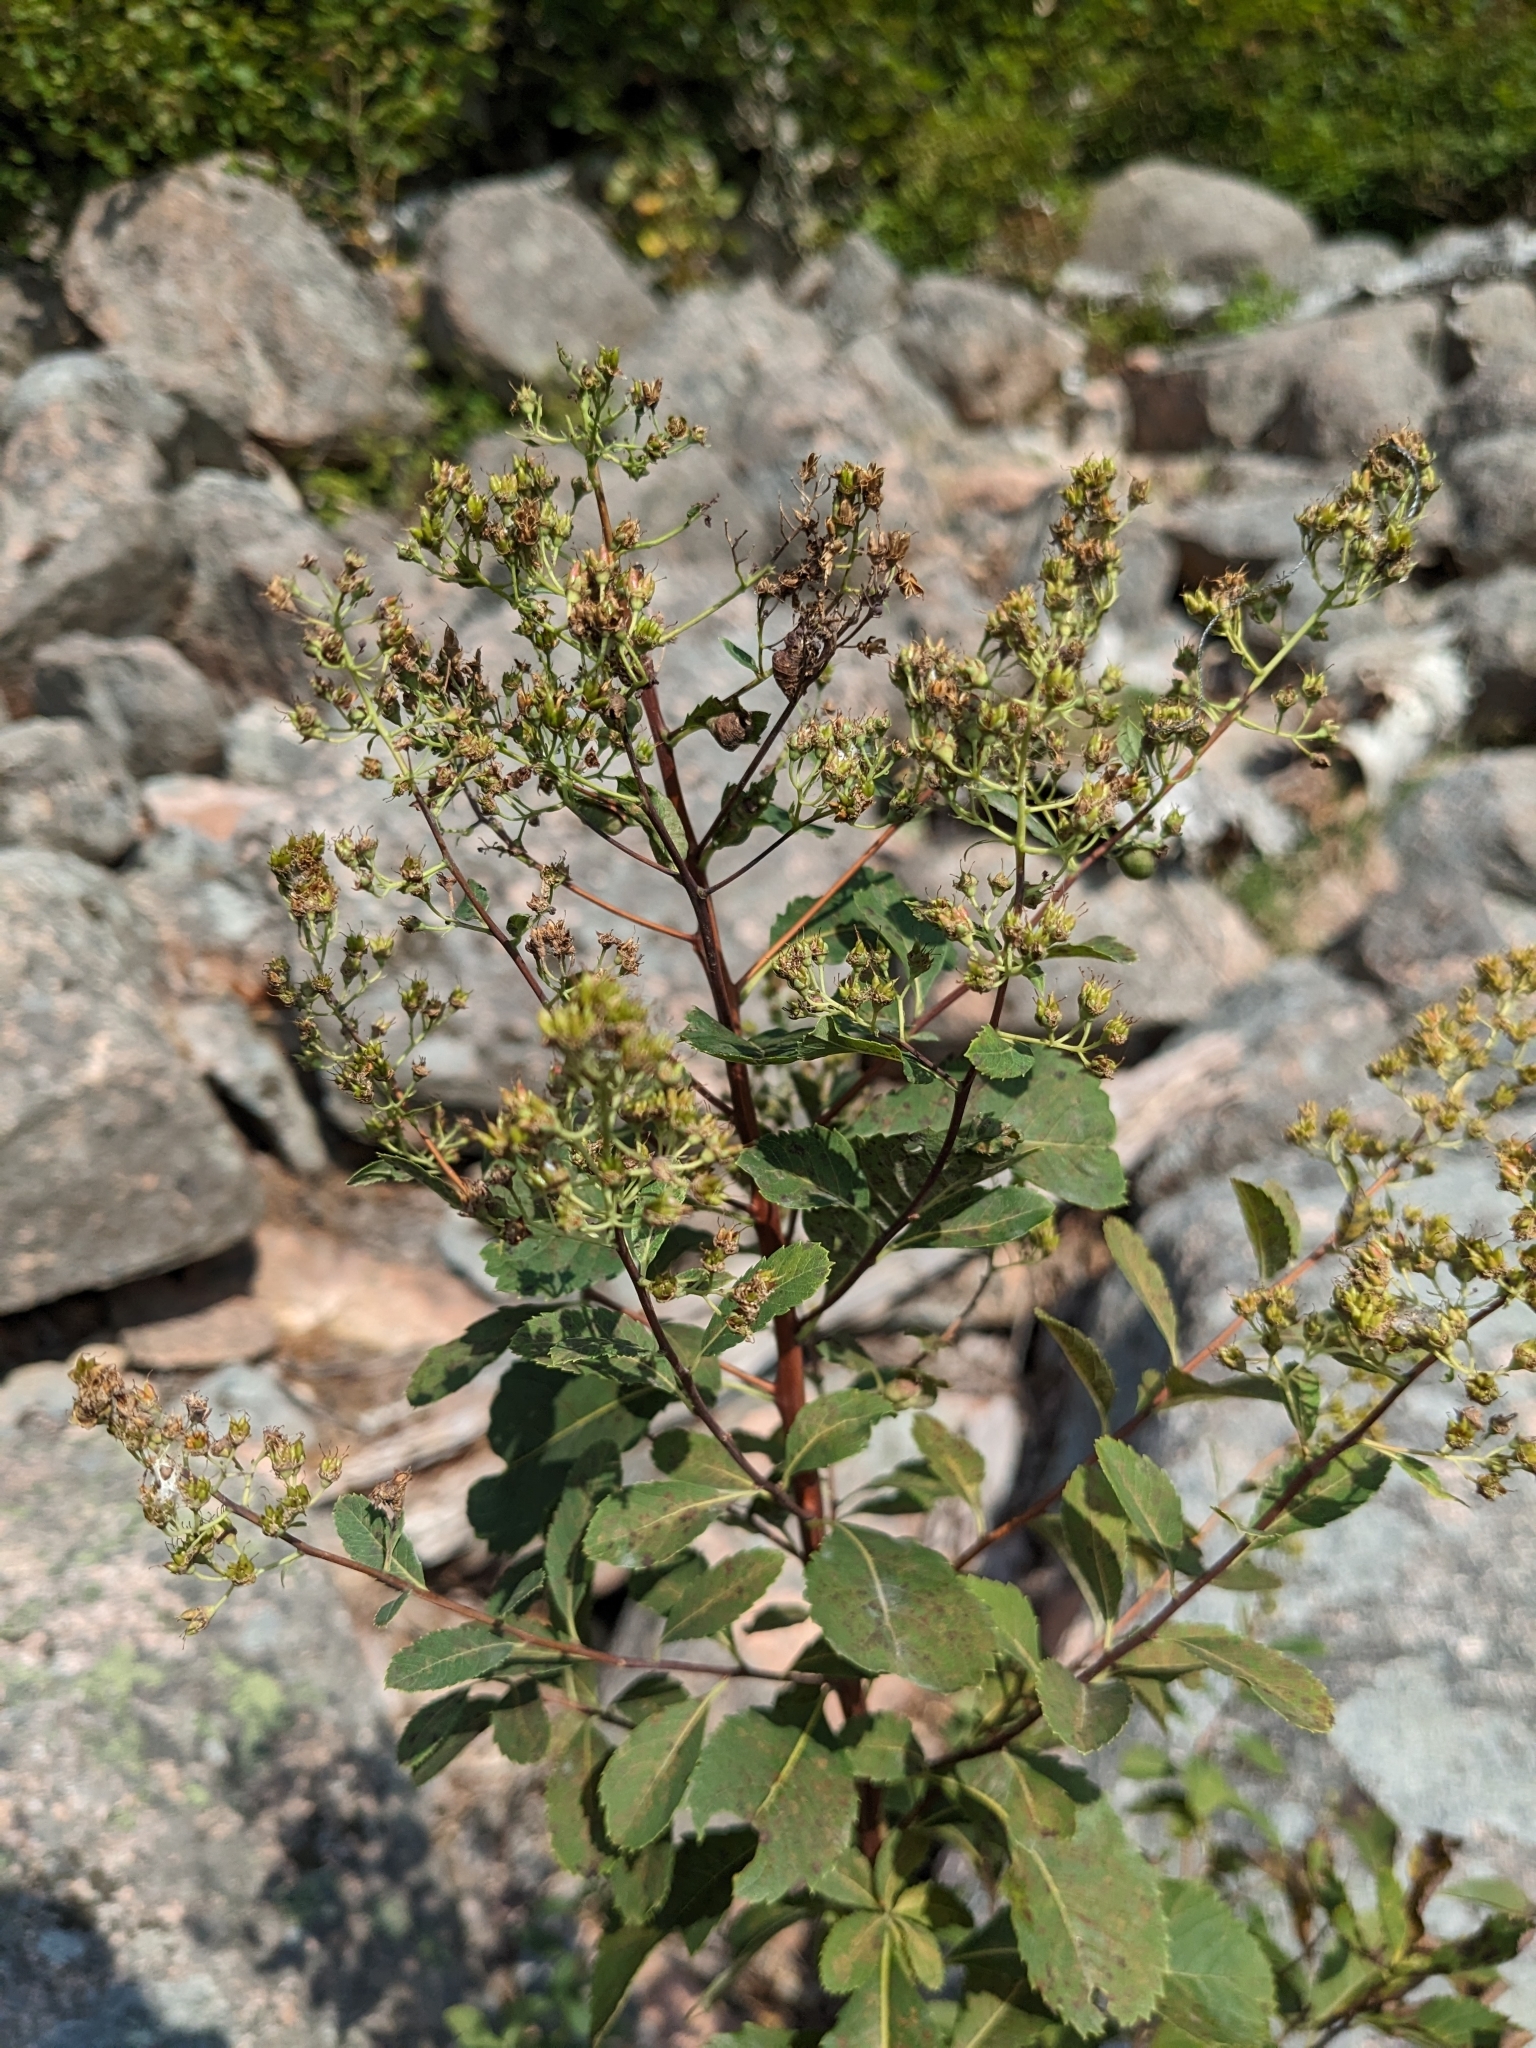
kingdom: Plantae
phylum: Tracheophyta
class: Magnoliopsida
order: Rosales
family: Rosaceae
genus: Spiraea
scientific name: Spiraea alba
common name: Pale bridewort
